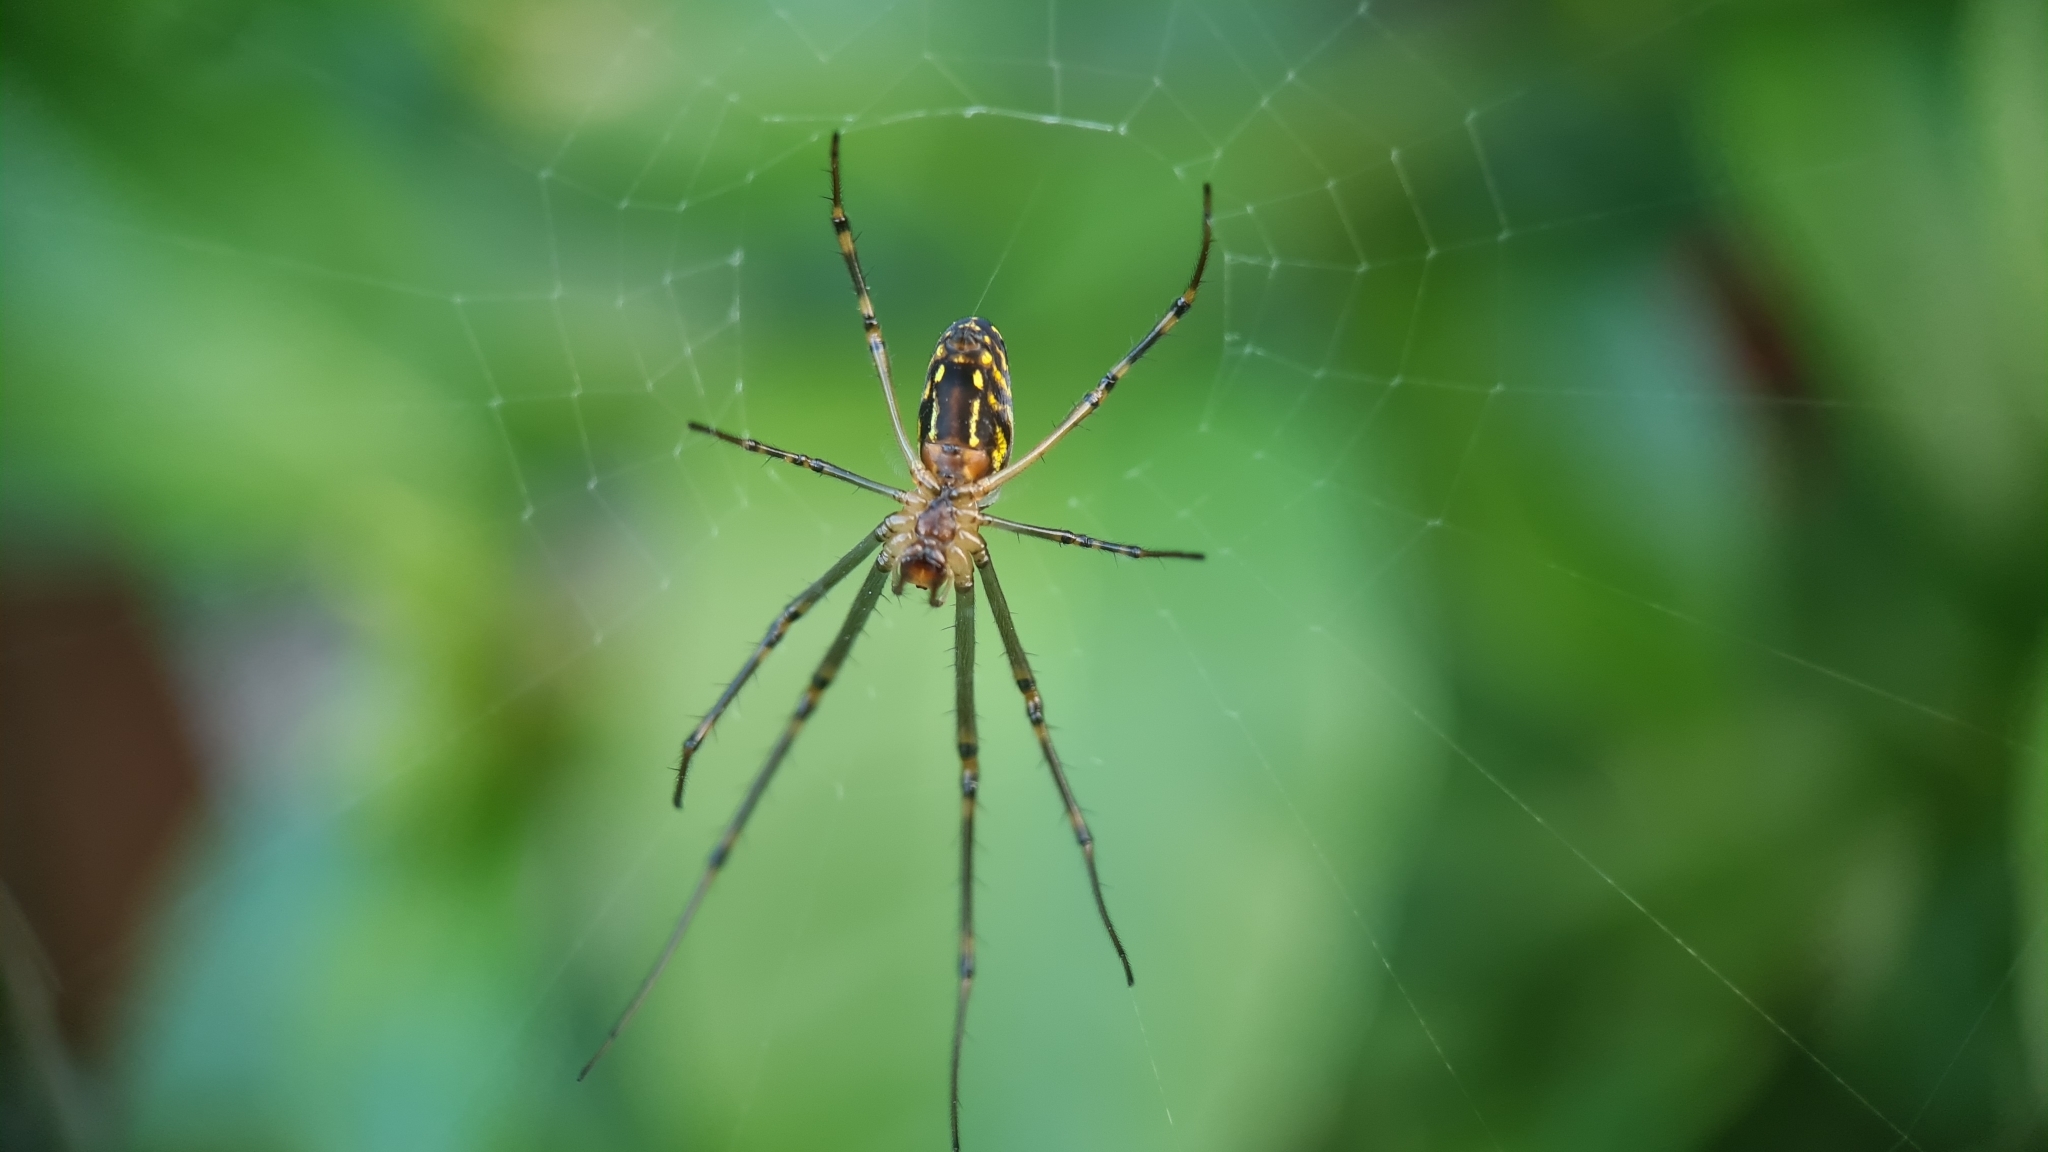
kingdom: Animalia
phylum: Arthropoda
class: Arachnida
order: Araneae
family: Tetragnathidae
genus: Leucauge
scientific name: Leucauge dromedaria
